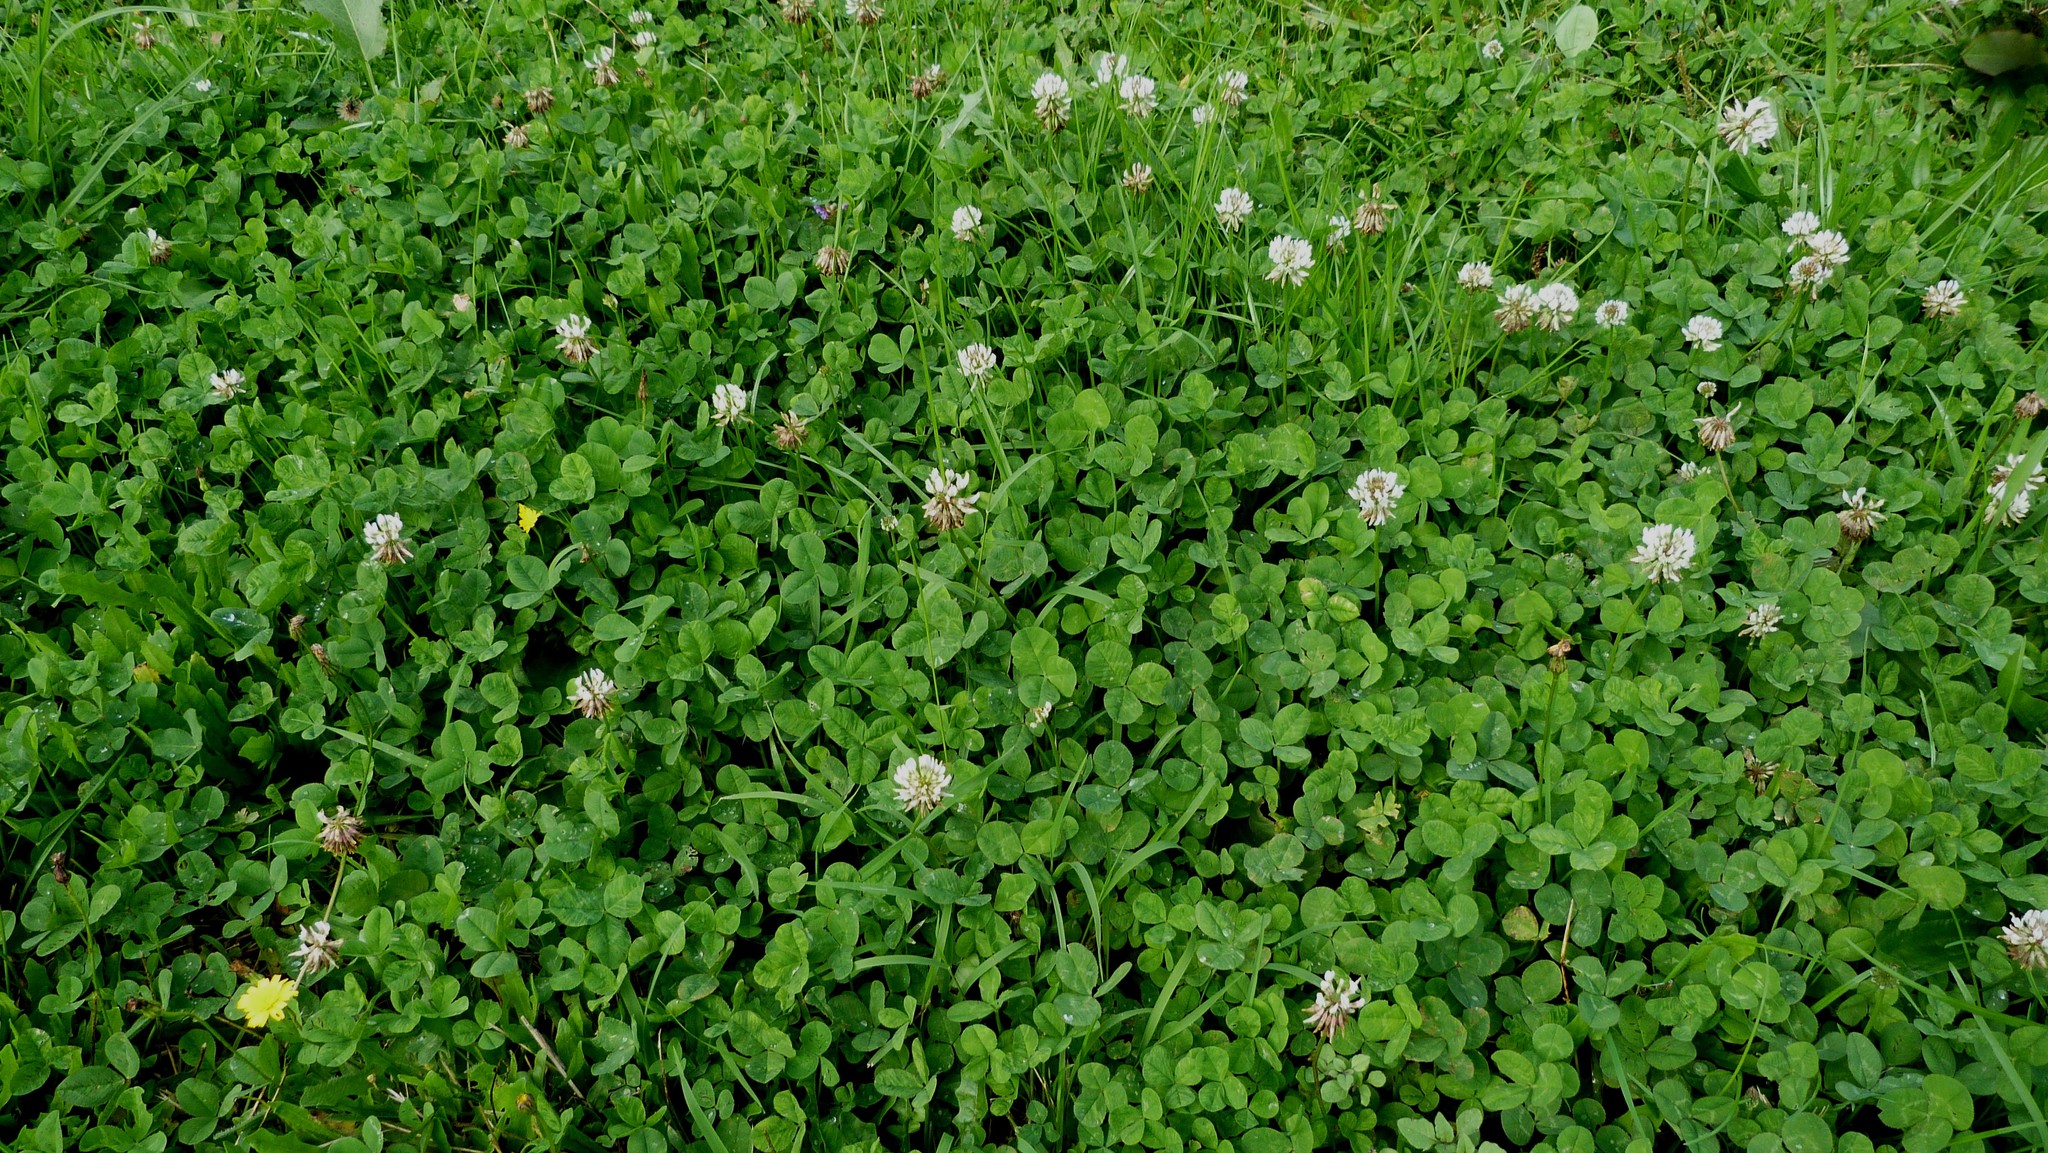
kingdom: Plantae
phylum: Tracheophyta
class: Magnoliopsida
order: Fabales
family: Fabaceae
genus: Trifolium
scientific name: Trifolium repens
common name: White clover
